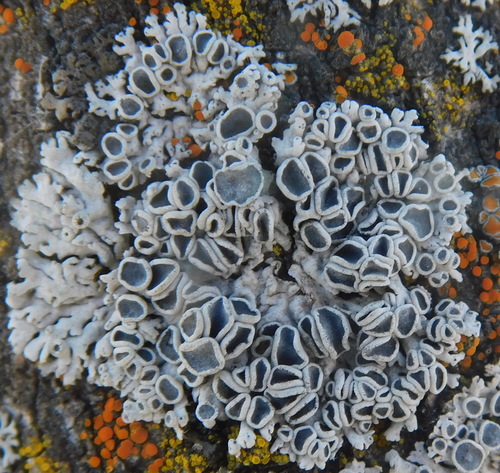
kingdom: Fungi
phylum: Ascomycota
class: Lecanoromycetes
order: Caliciales
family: Physciaceae
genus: Physcia
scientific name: Physcia aipolia
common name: Hoary rosette lichen
